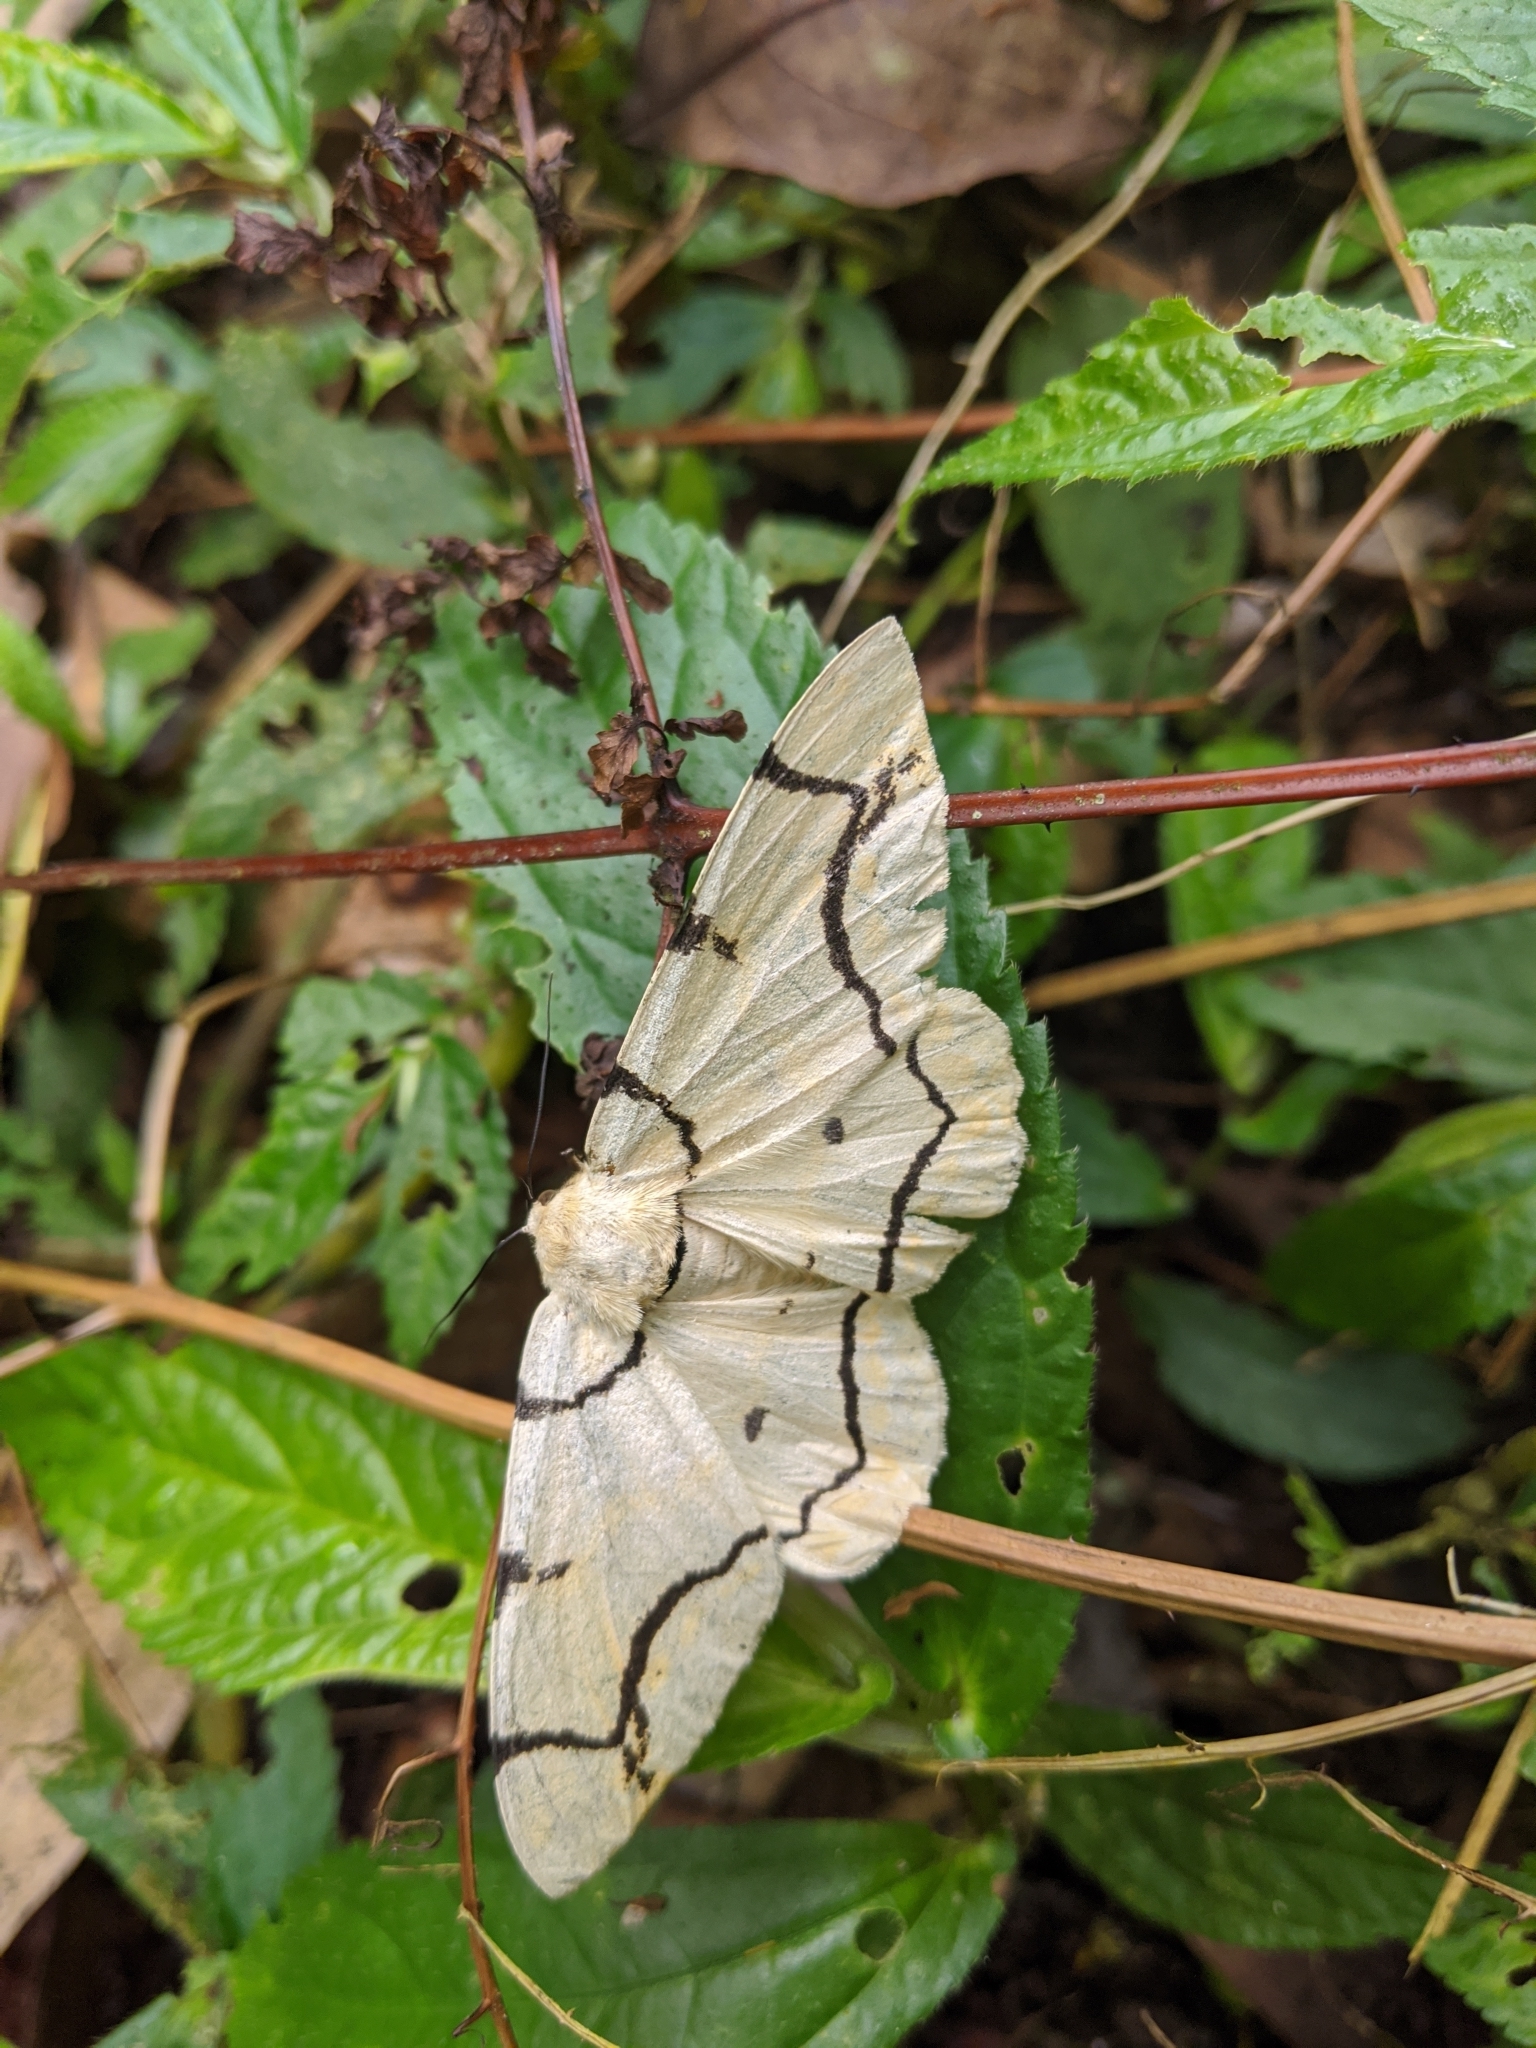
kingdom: Animalia
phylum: Arthropoda
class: Insecta
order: Lepidoptera
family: Geometridae
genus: Biston
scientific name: Biston perclara
